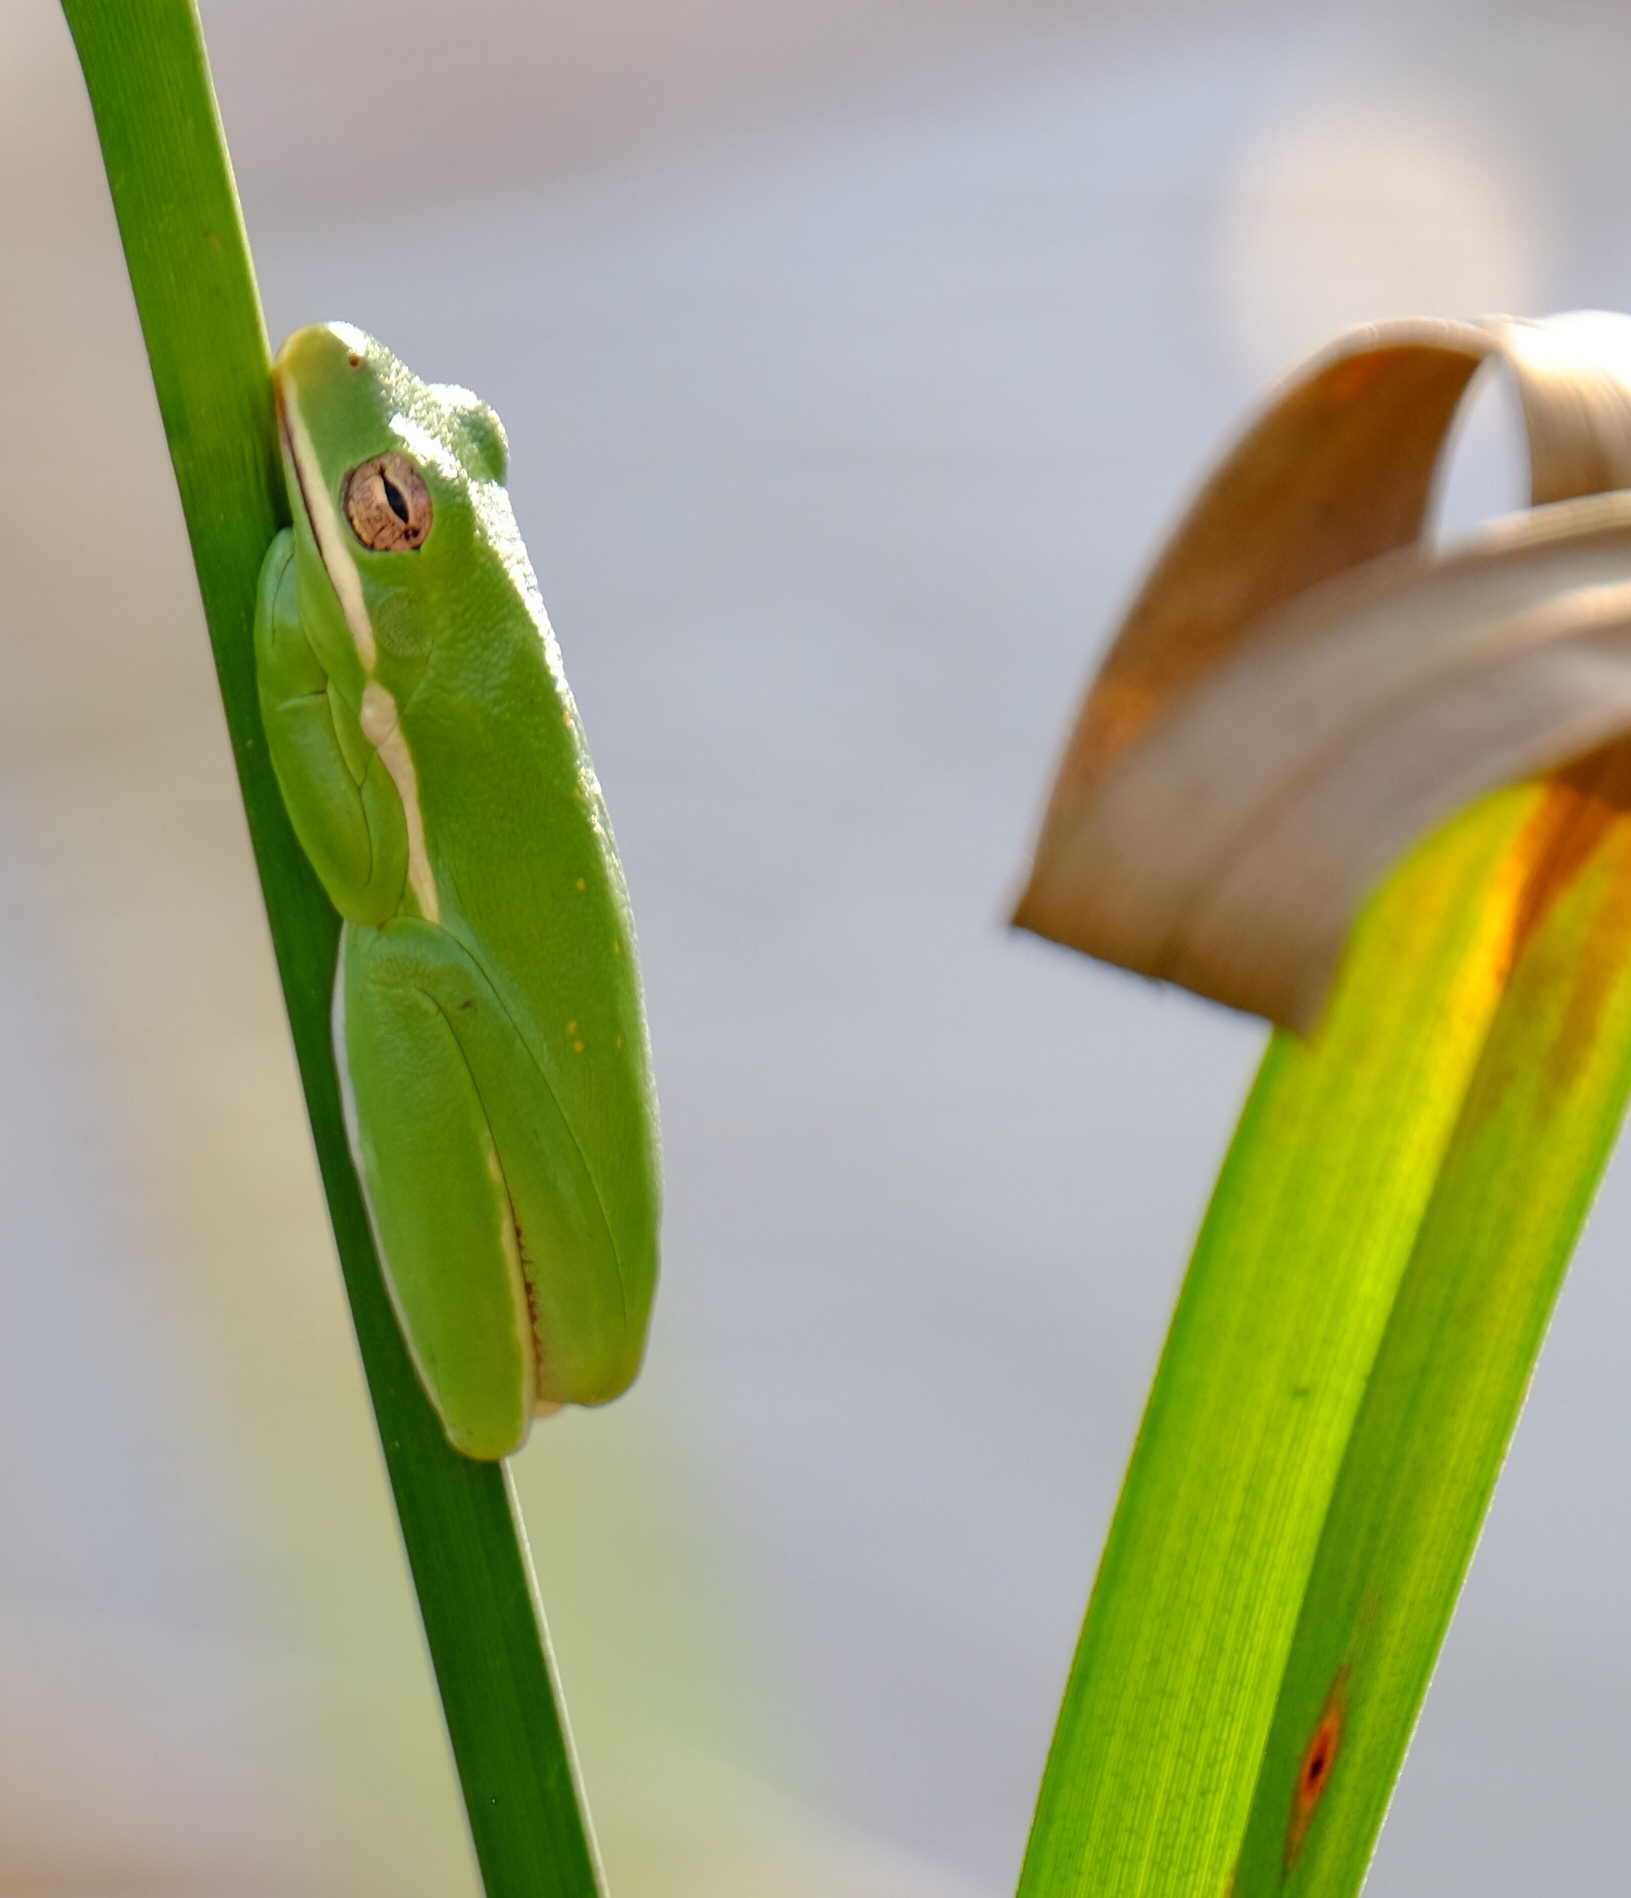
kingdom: Animalia
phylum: Chordata
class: Amphibia
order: Anura
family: Hylidae
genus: Dryophytes
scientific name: Dryophytes cinereus
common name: Green treefrog
